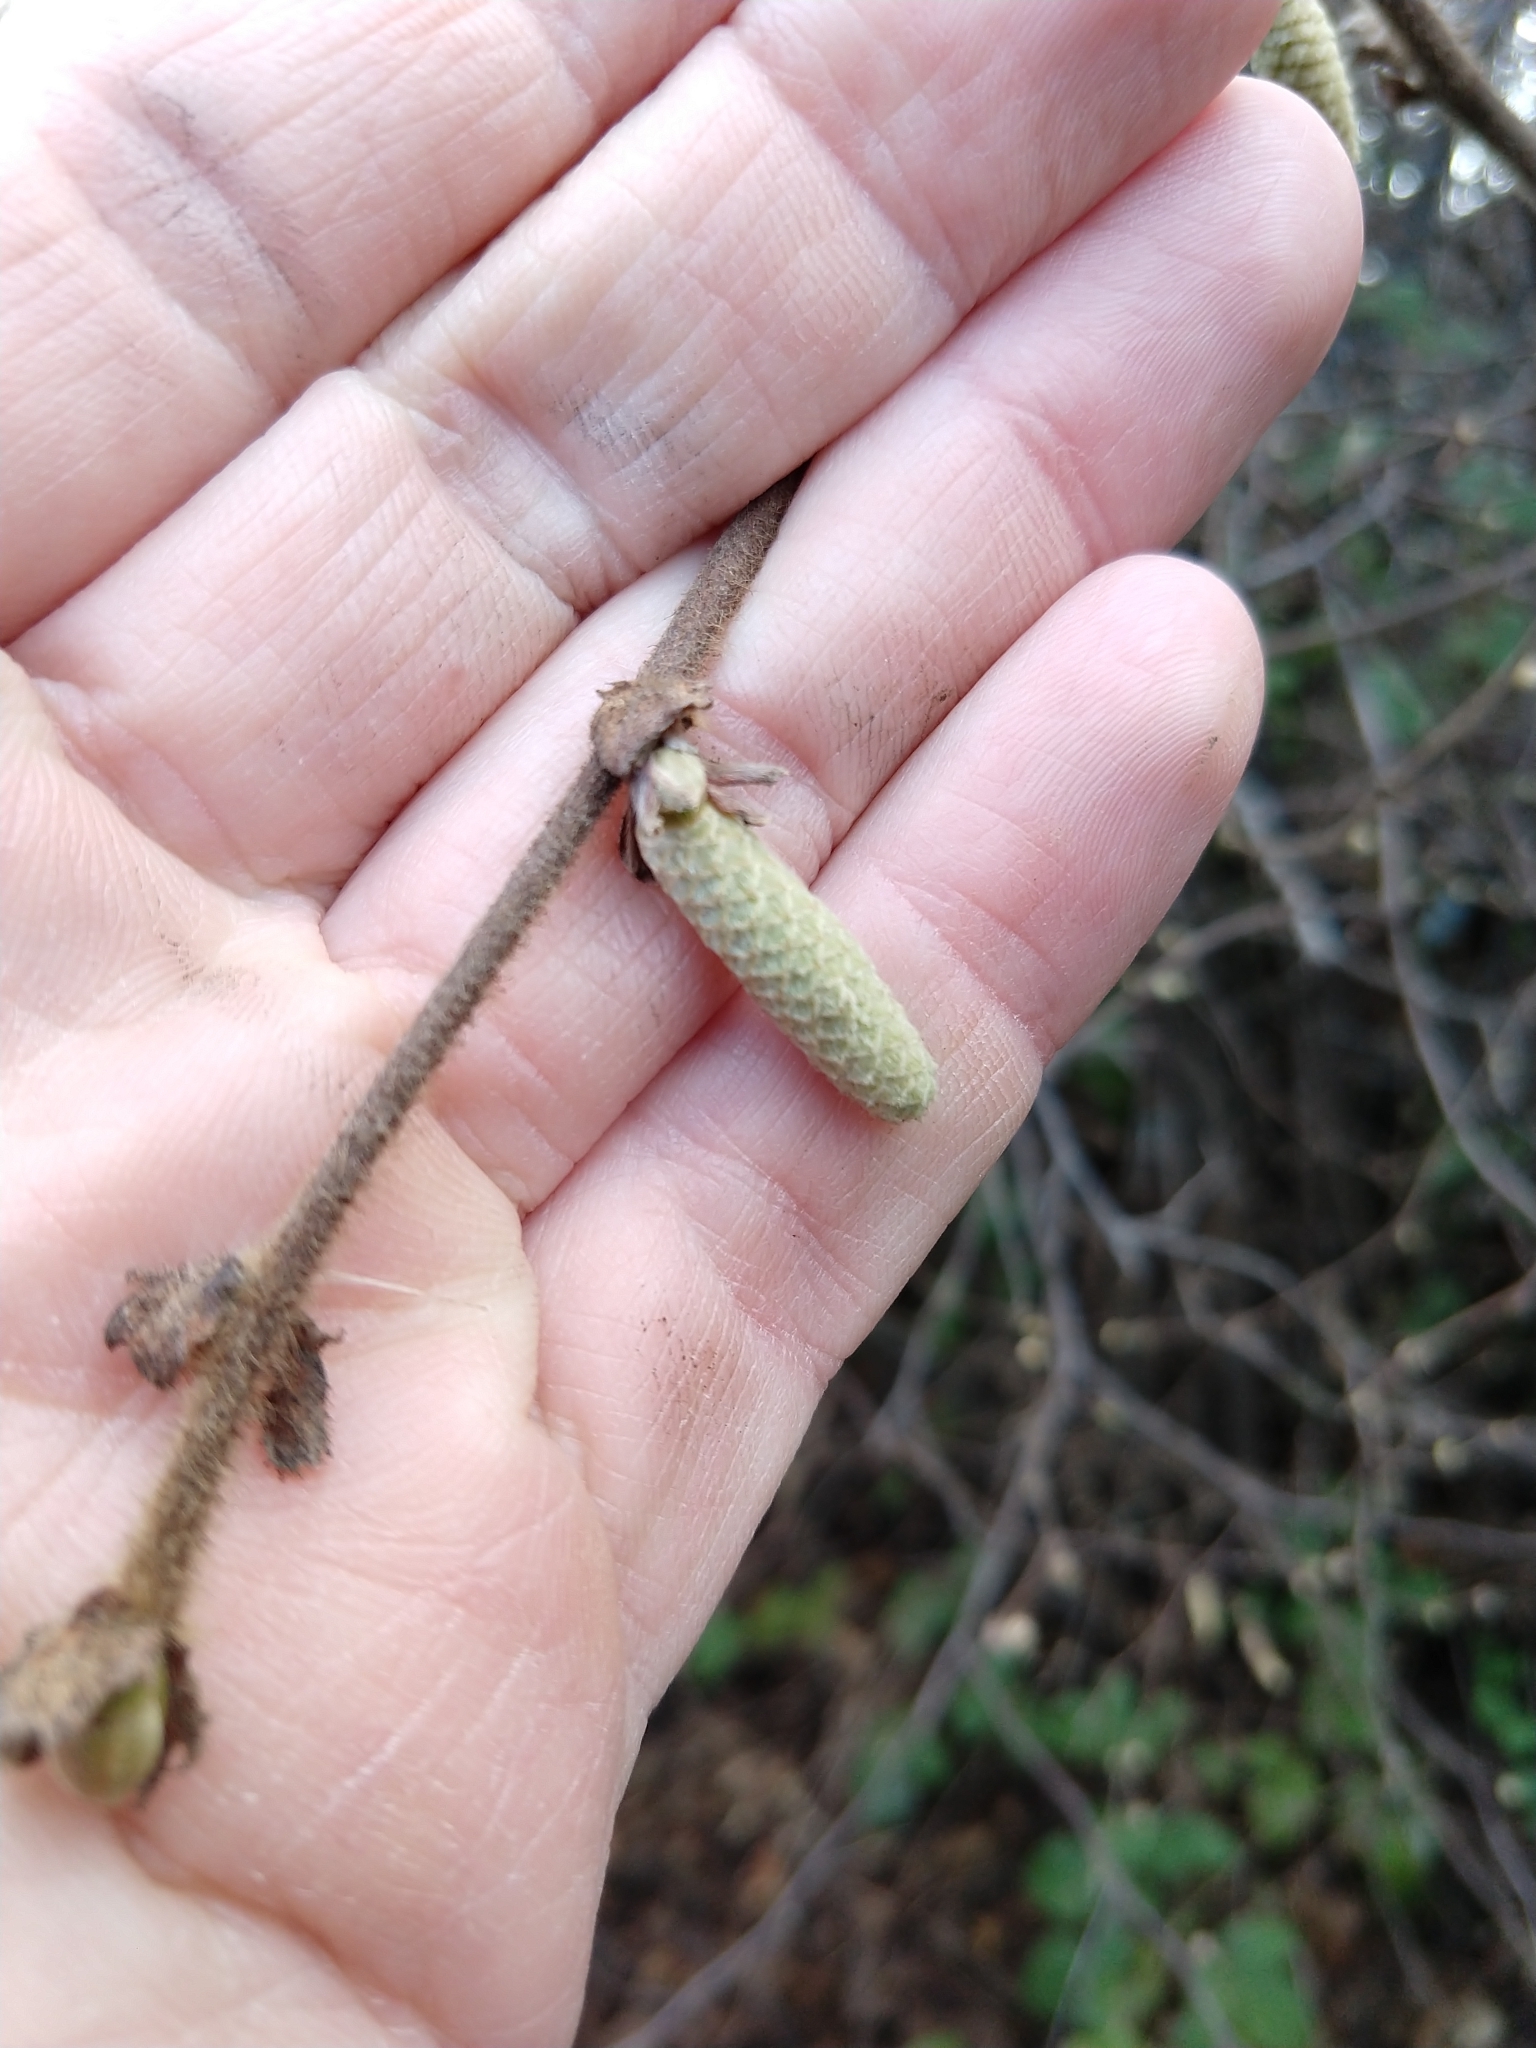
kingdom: Plantae
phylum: Tracheophyta
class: Magnoliopsida
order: Fagales
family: Betulaceae
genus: Corylus
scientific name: Corylus cornuta
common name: Beaked hazel
